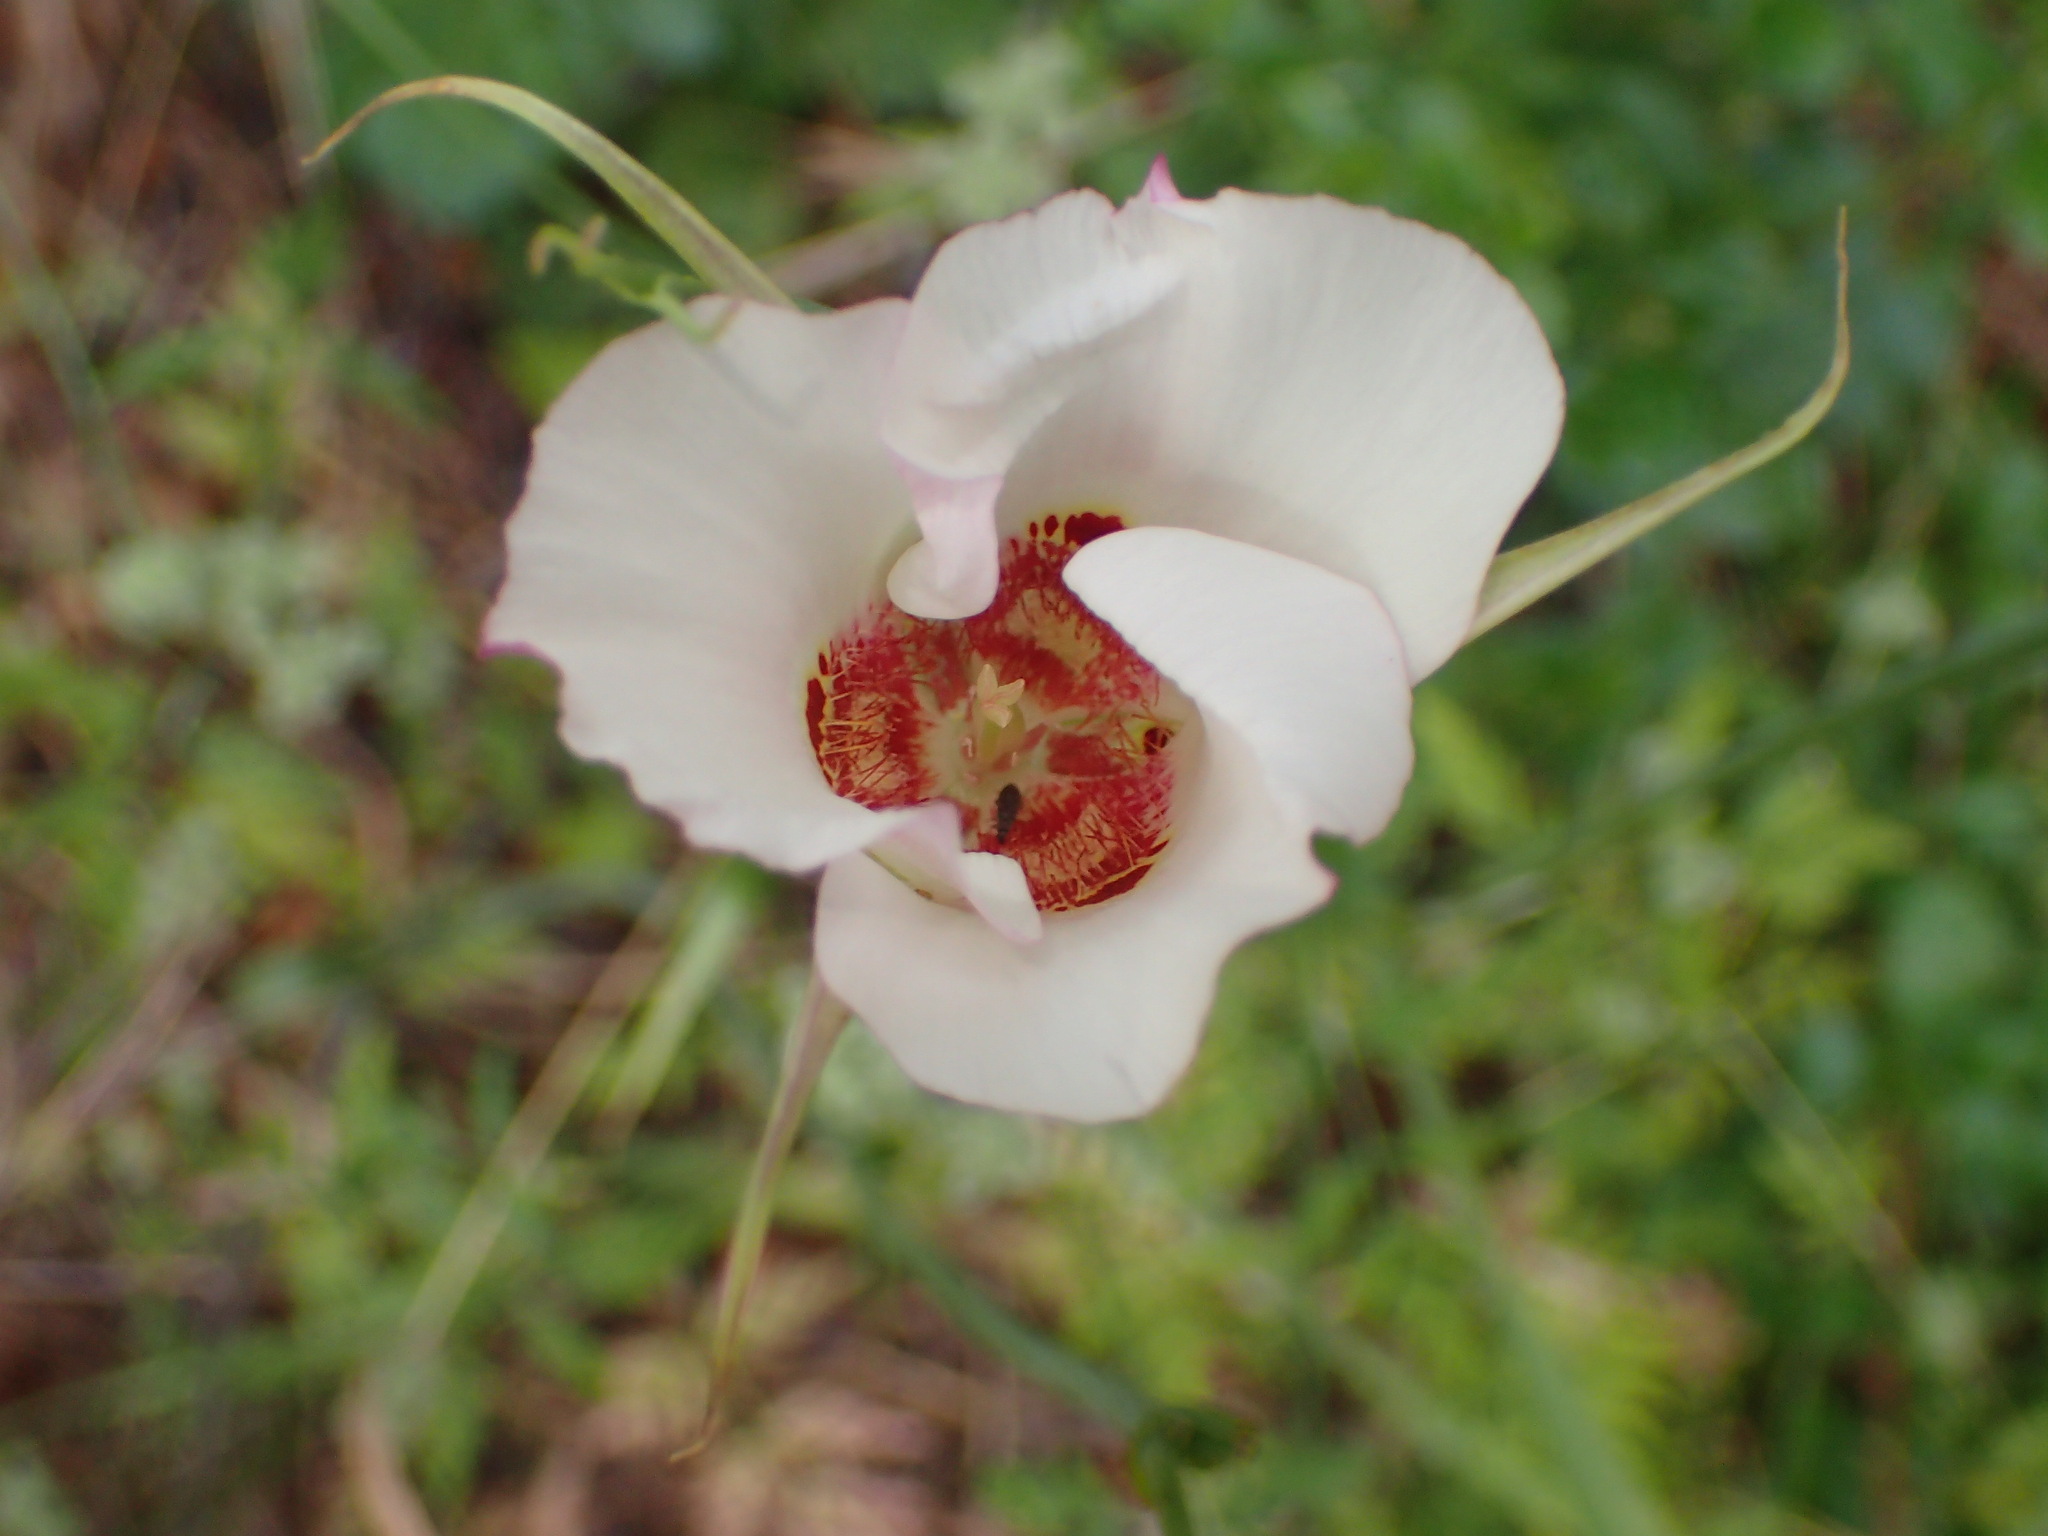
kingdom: Plantae
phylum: Tracheophyta
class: Liliopsida
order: Liliales
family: Liliaceae
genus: Calochortus
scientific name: Calochortus venustus
